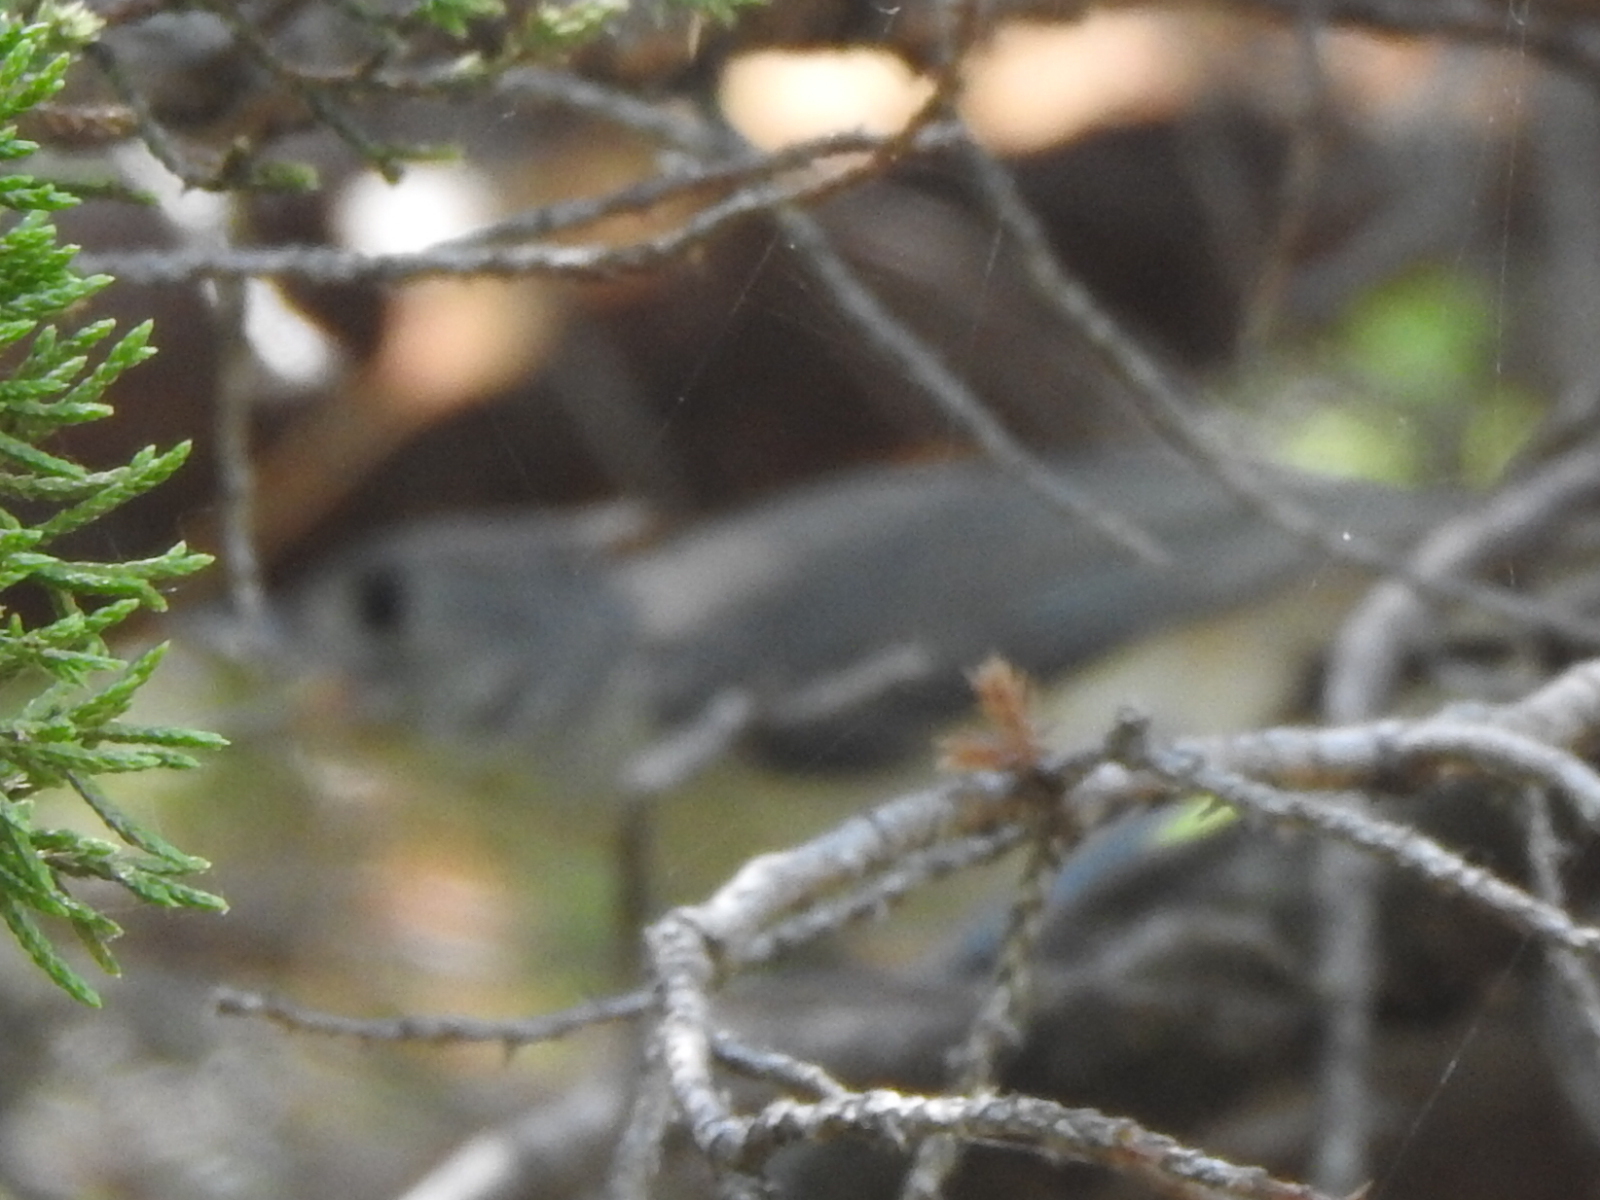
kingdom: Animalia
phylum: Chordata
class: Aves
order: Passeriformes
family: Paridae
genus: Baeolophus
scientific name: Baeolophus bicolor
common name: Tufted titmouse
